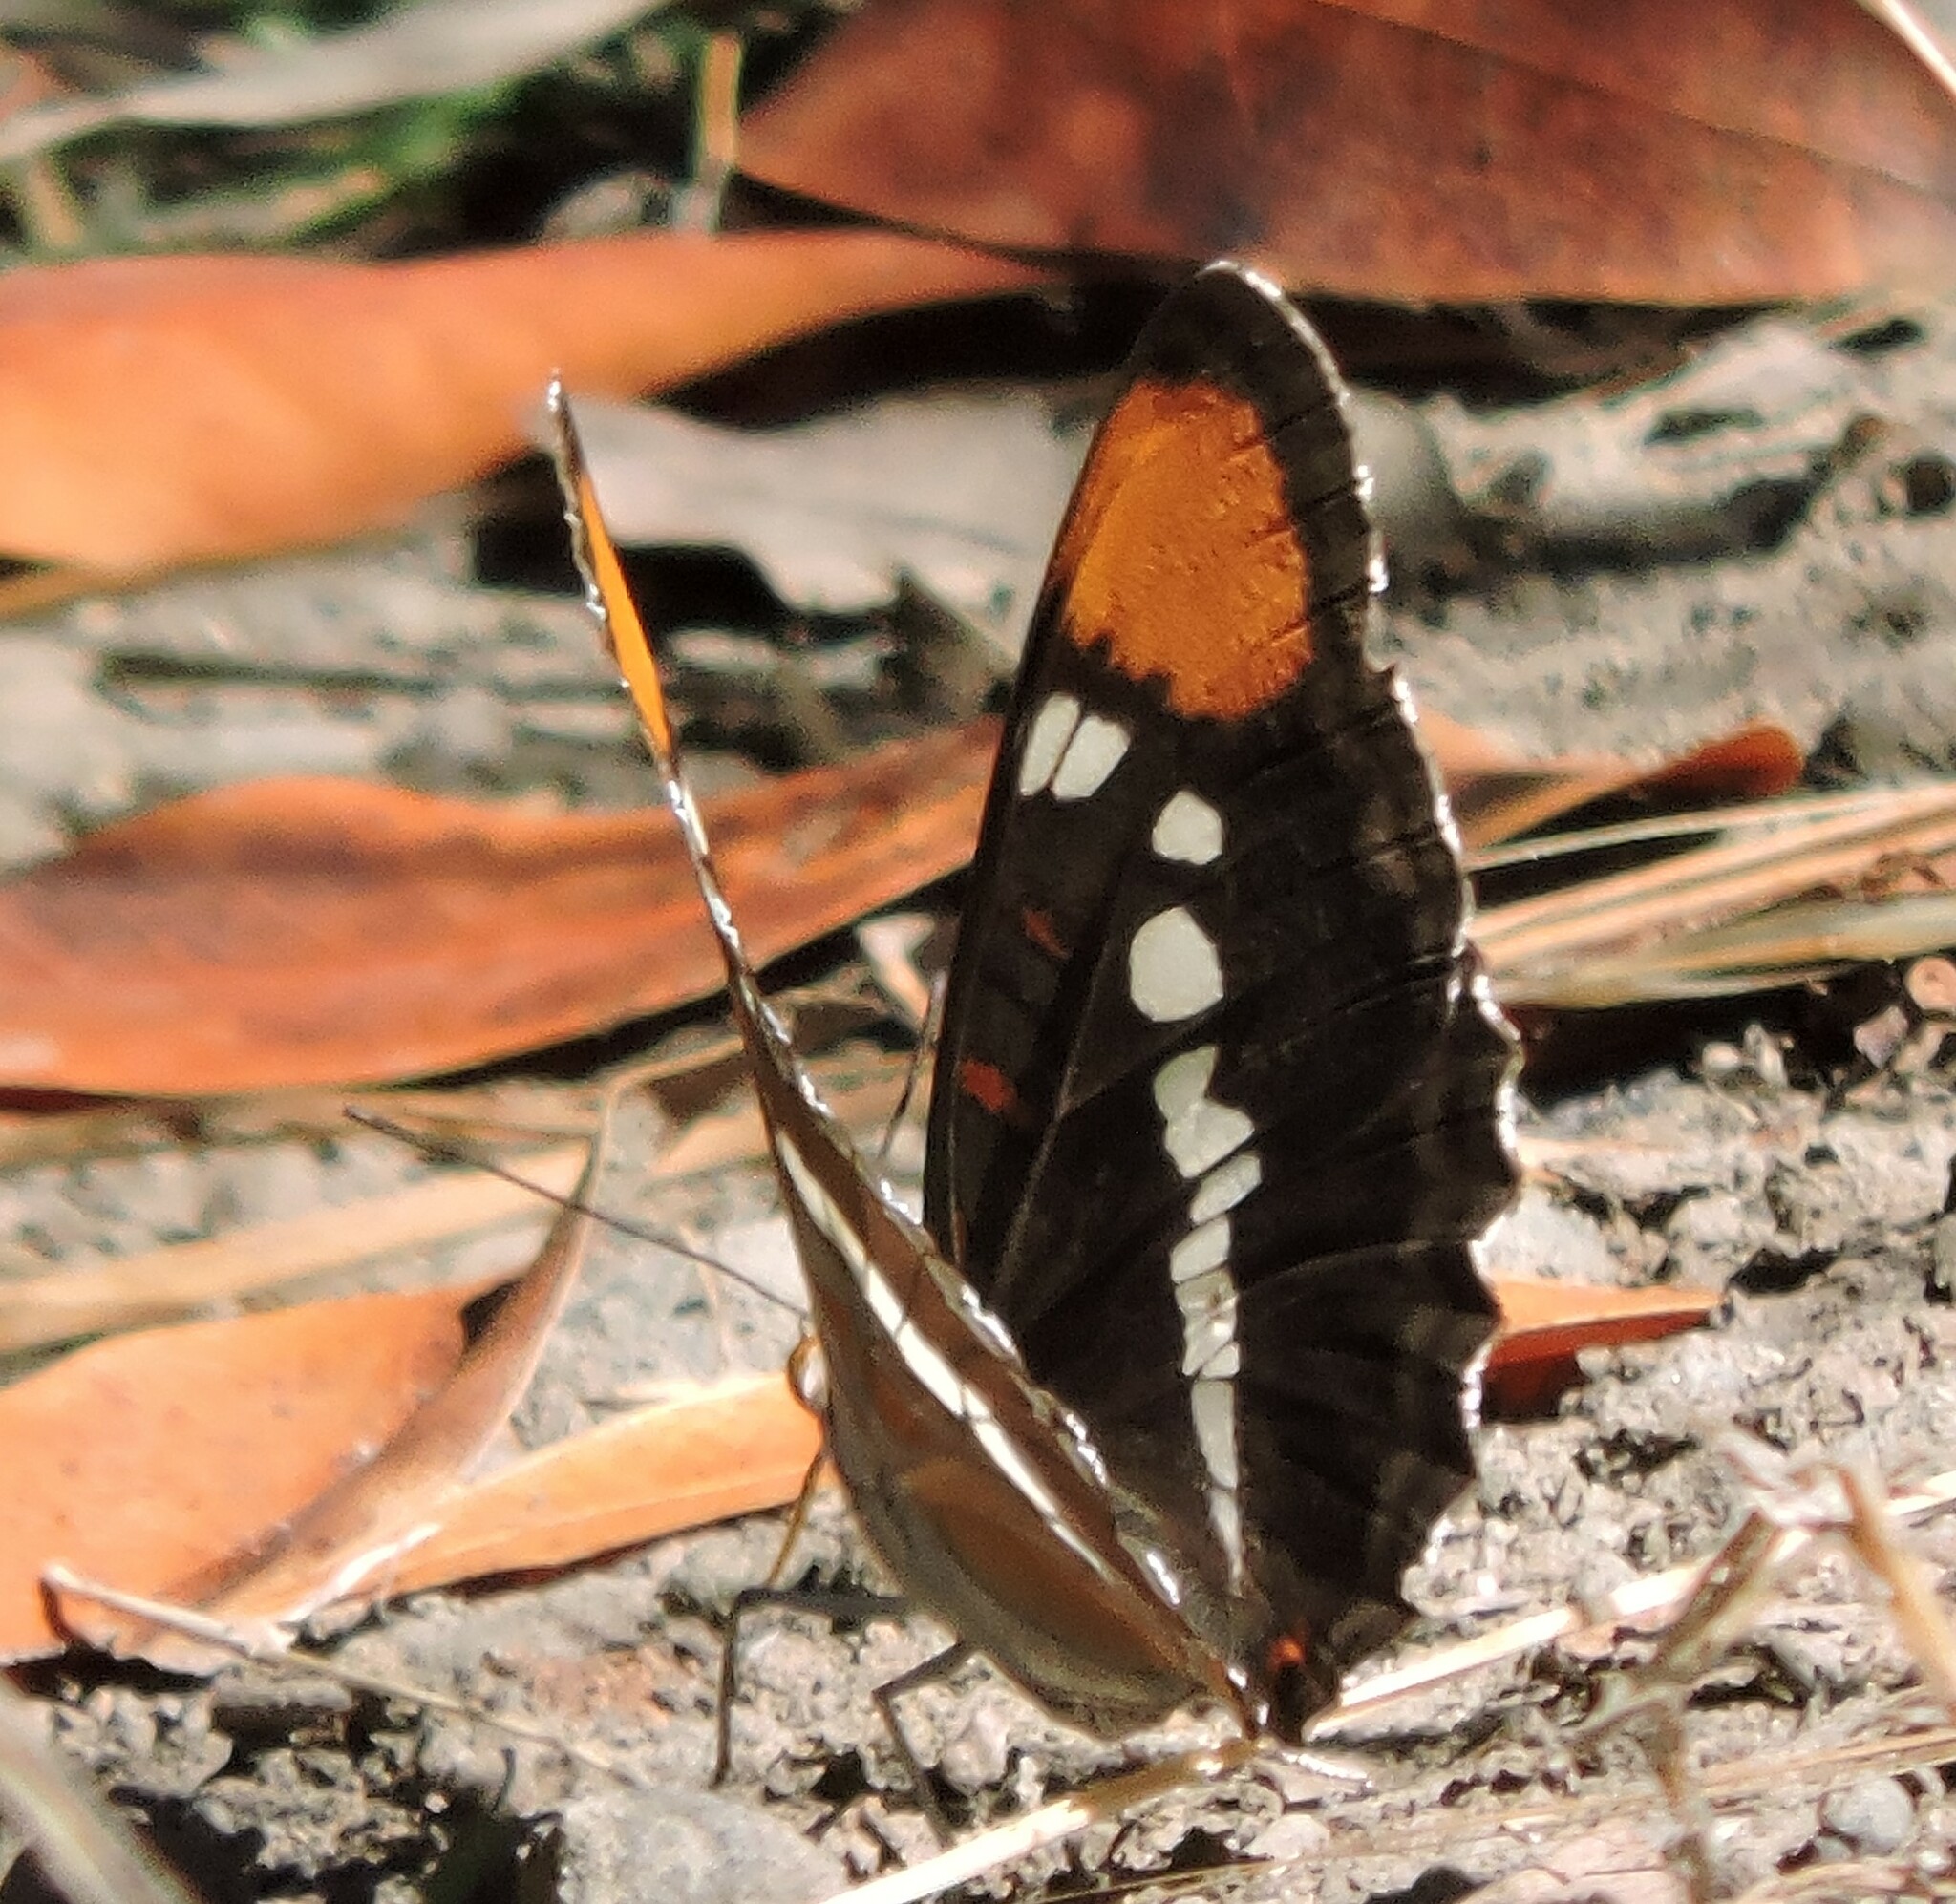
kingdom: Animalia
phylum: Arthropoda
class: Insecta
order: Lepidoptera
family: Nymphalidae
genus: Limenitis
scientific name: Limenitis bredowii
